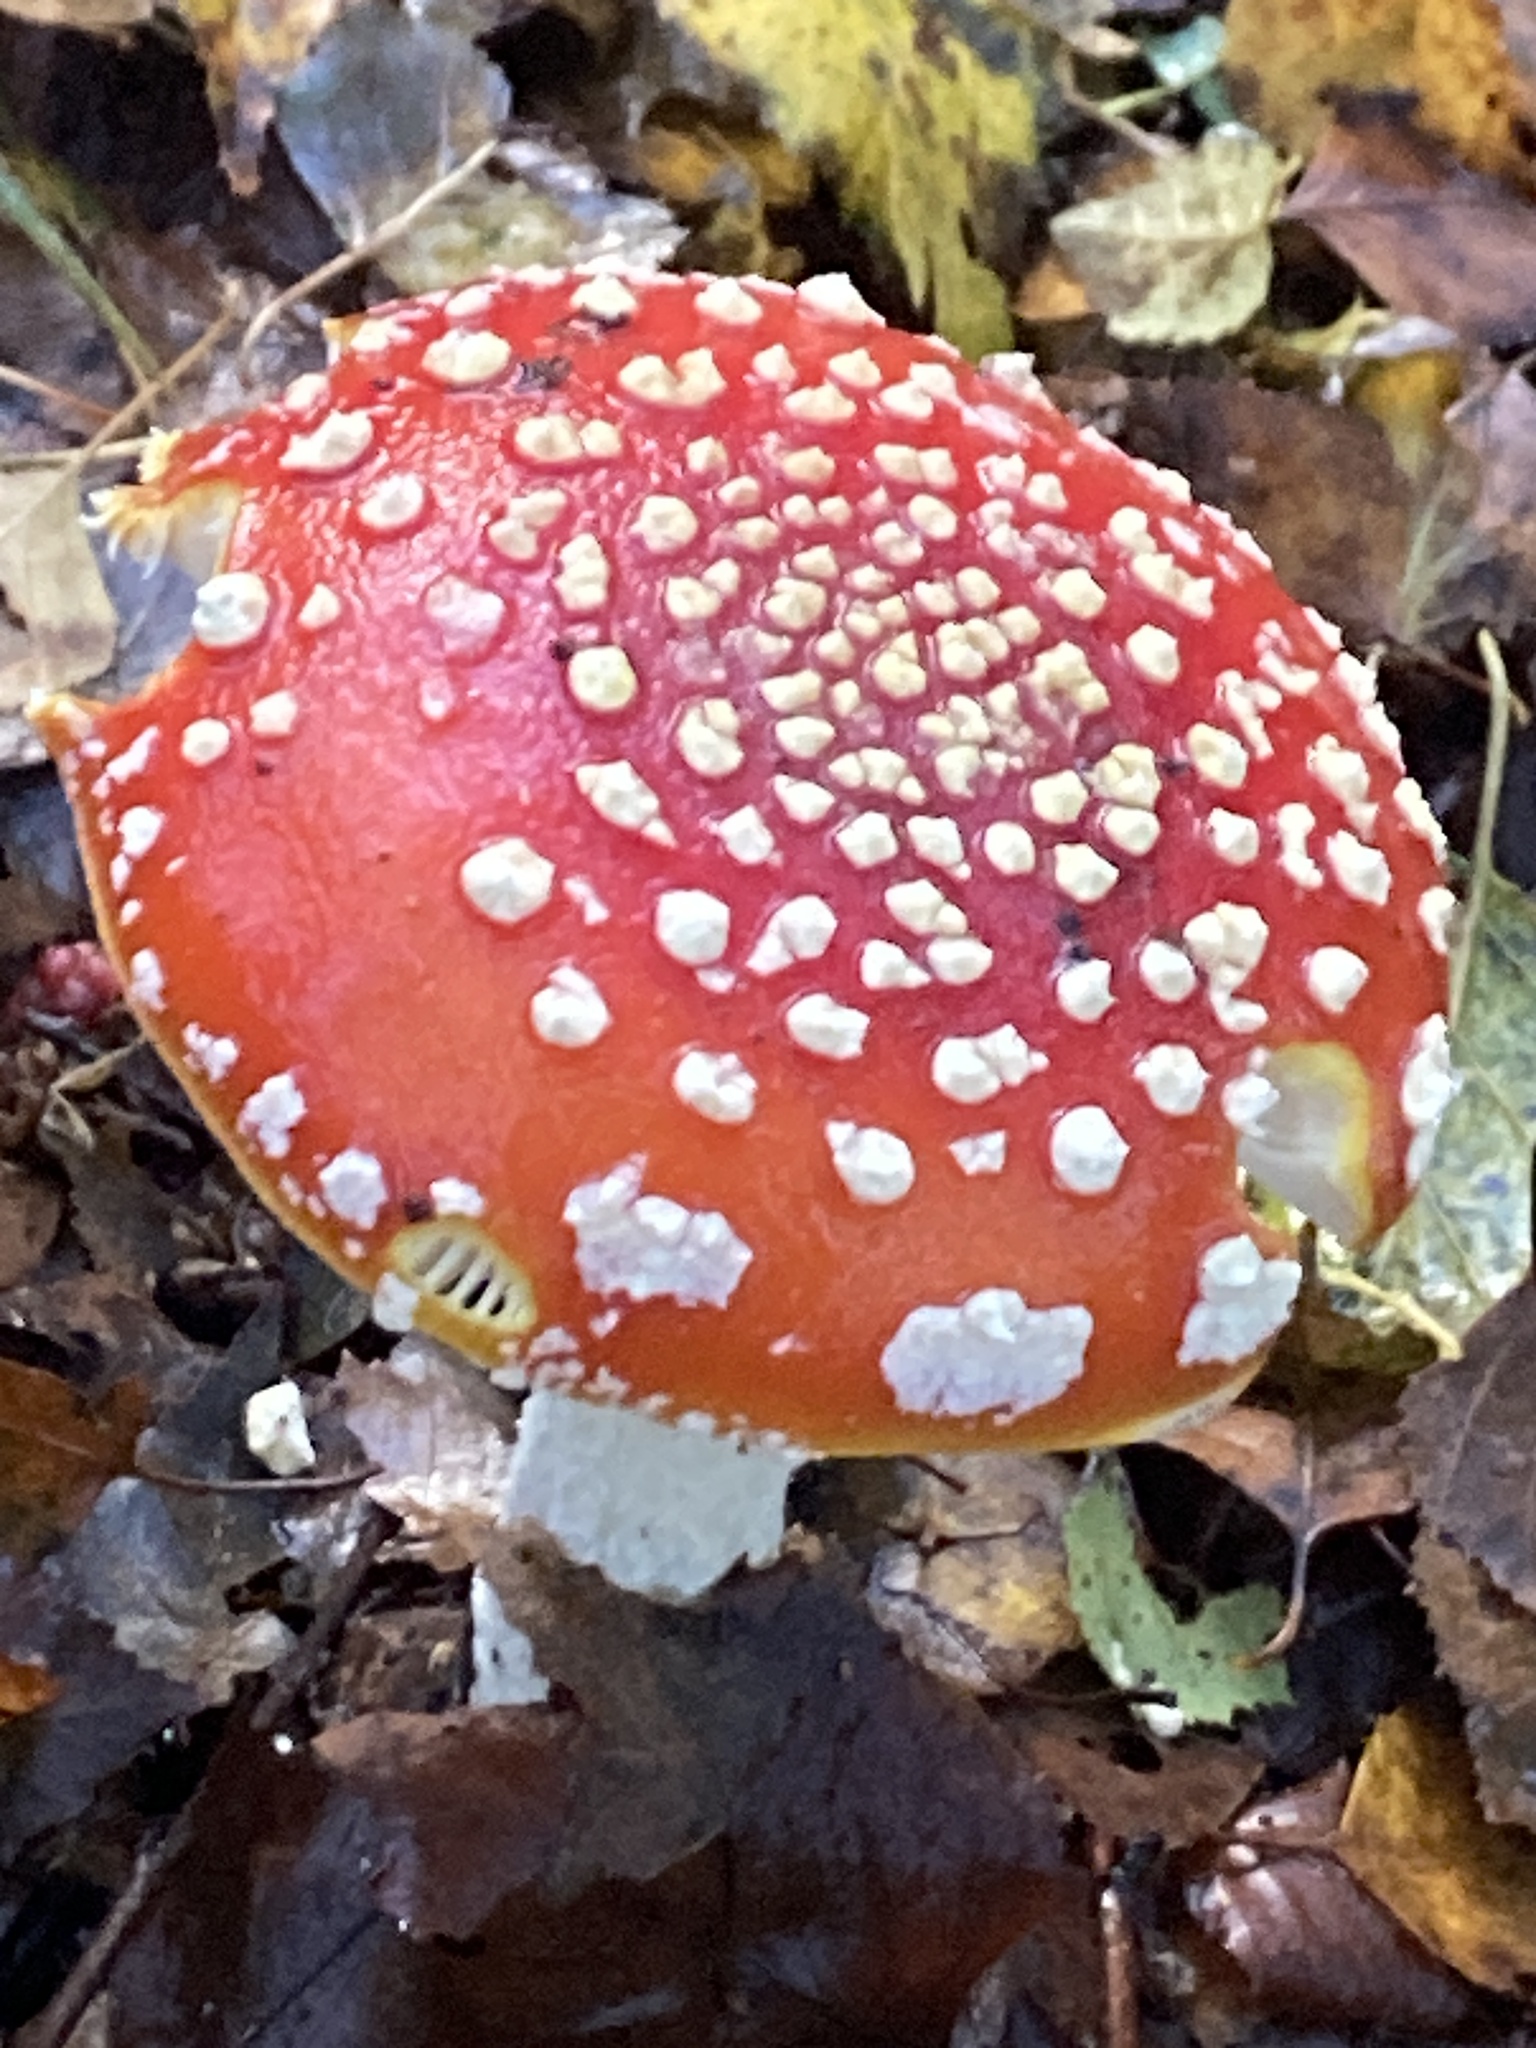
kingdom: Fungi
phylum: Basidiomycota
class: Agaricomycetes
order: Agaricales
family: Amanitaceae
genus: Amanita
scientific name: Amanita muscaria
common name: Fly agaric
